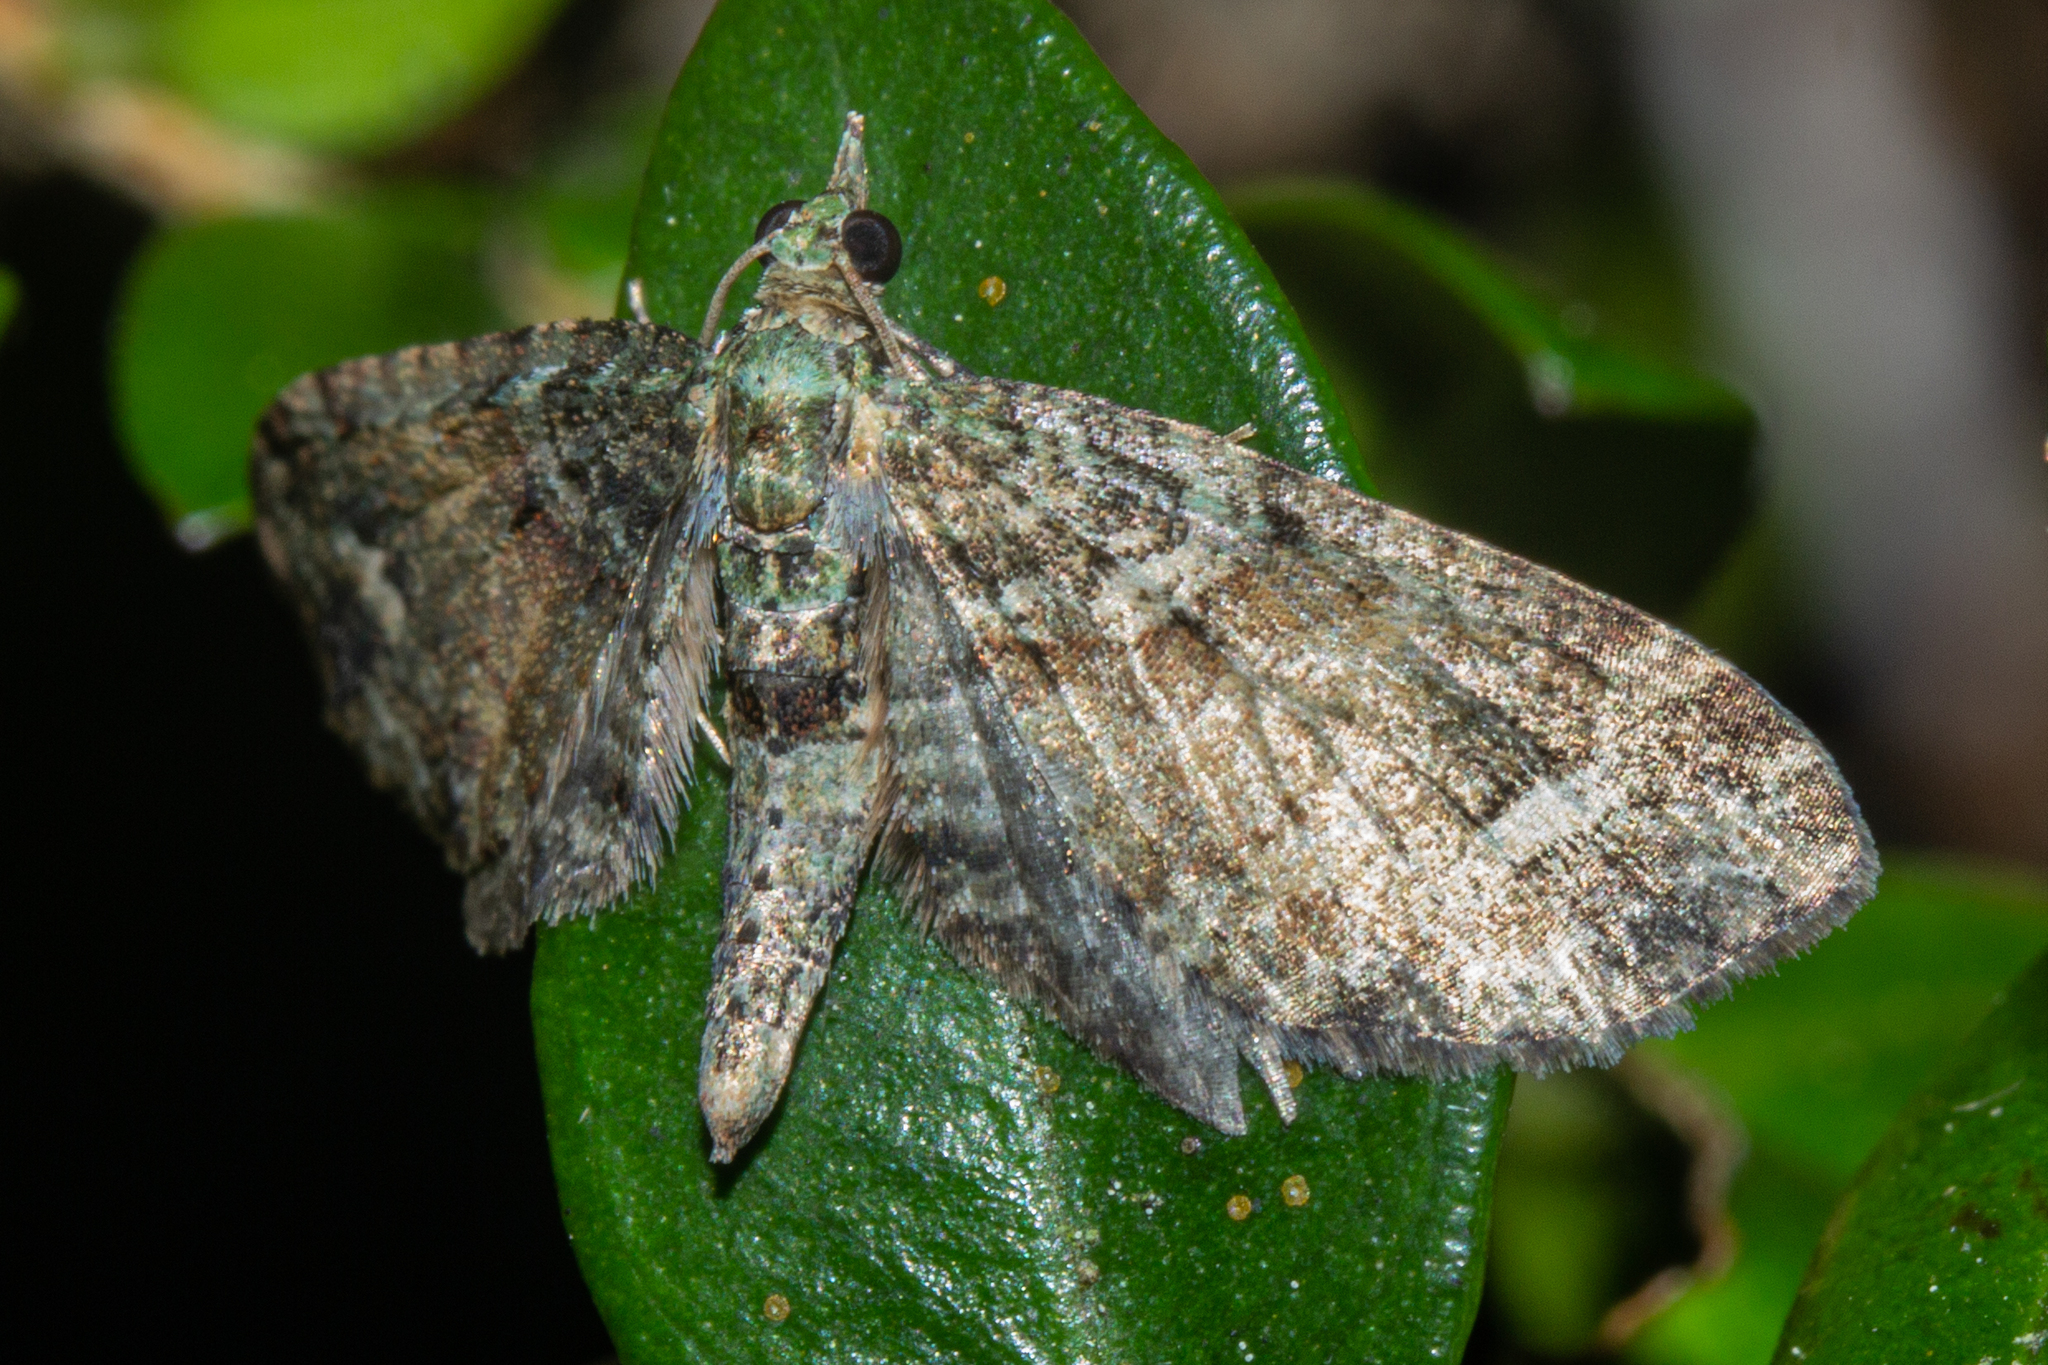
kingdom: Animalia
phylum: Arthropoda
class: Insecta
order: Lepidoptera
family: Geometridae
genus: Idaea
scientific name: Idaea mutanda
